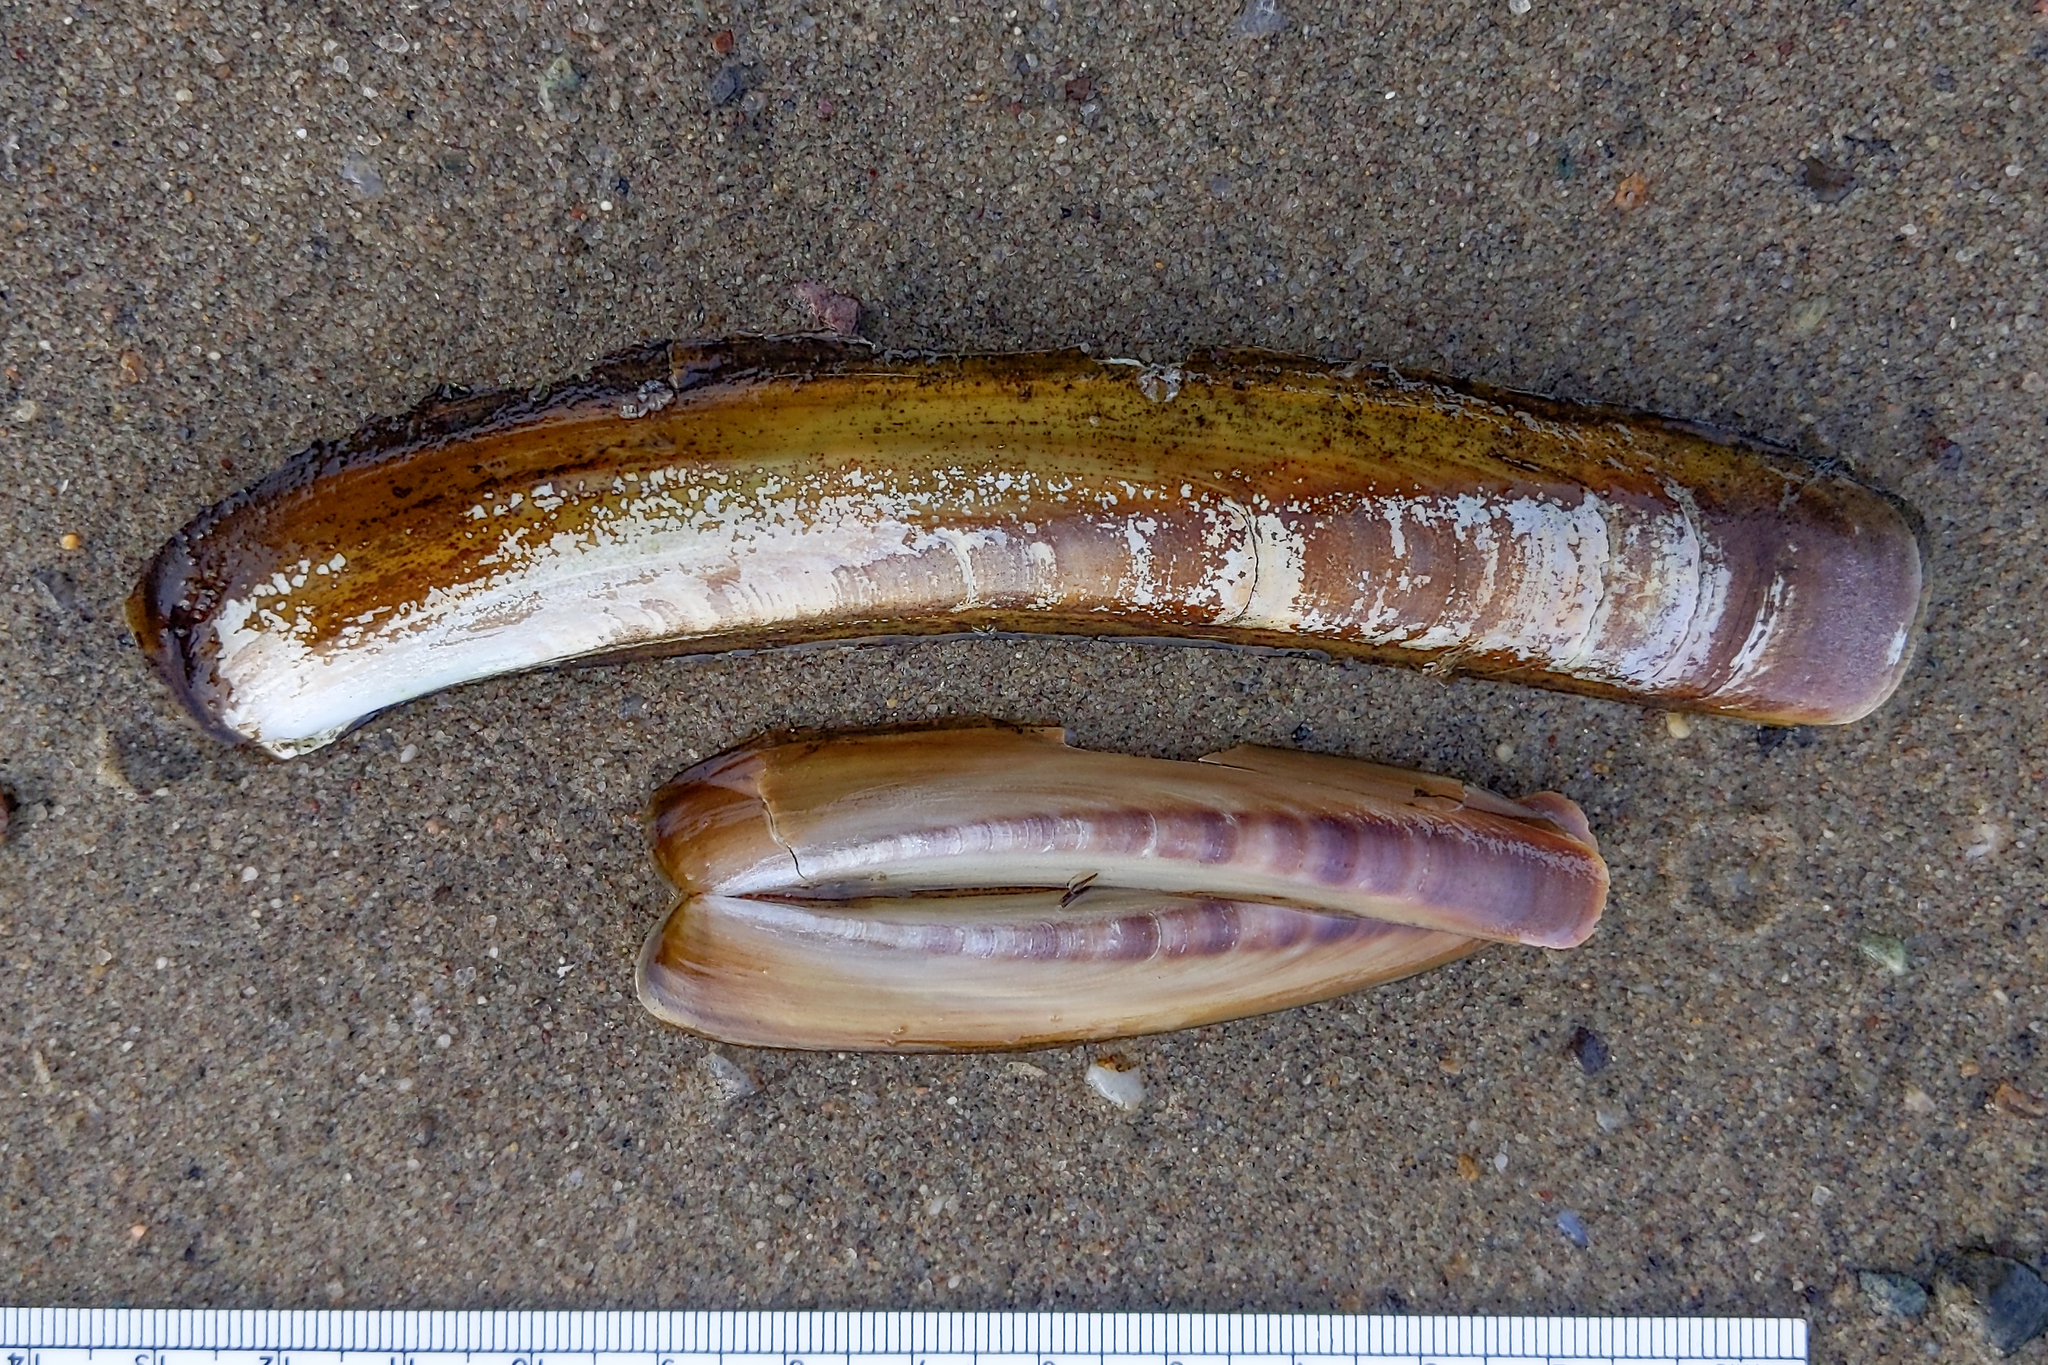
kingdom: Animalia
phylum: Mollusca
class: Bivalvia
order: Adapedonta
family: Pharidae
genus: Ensis
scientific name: Ensis leei
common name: American jack knife clam
